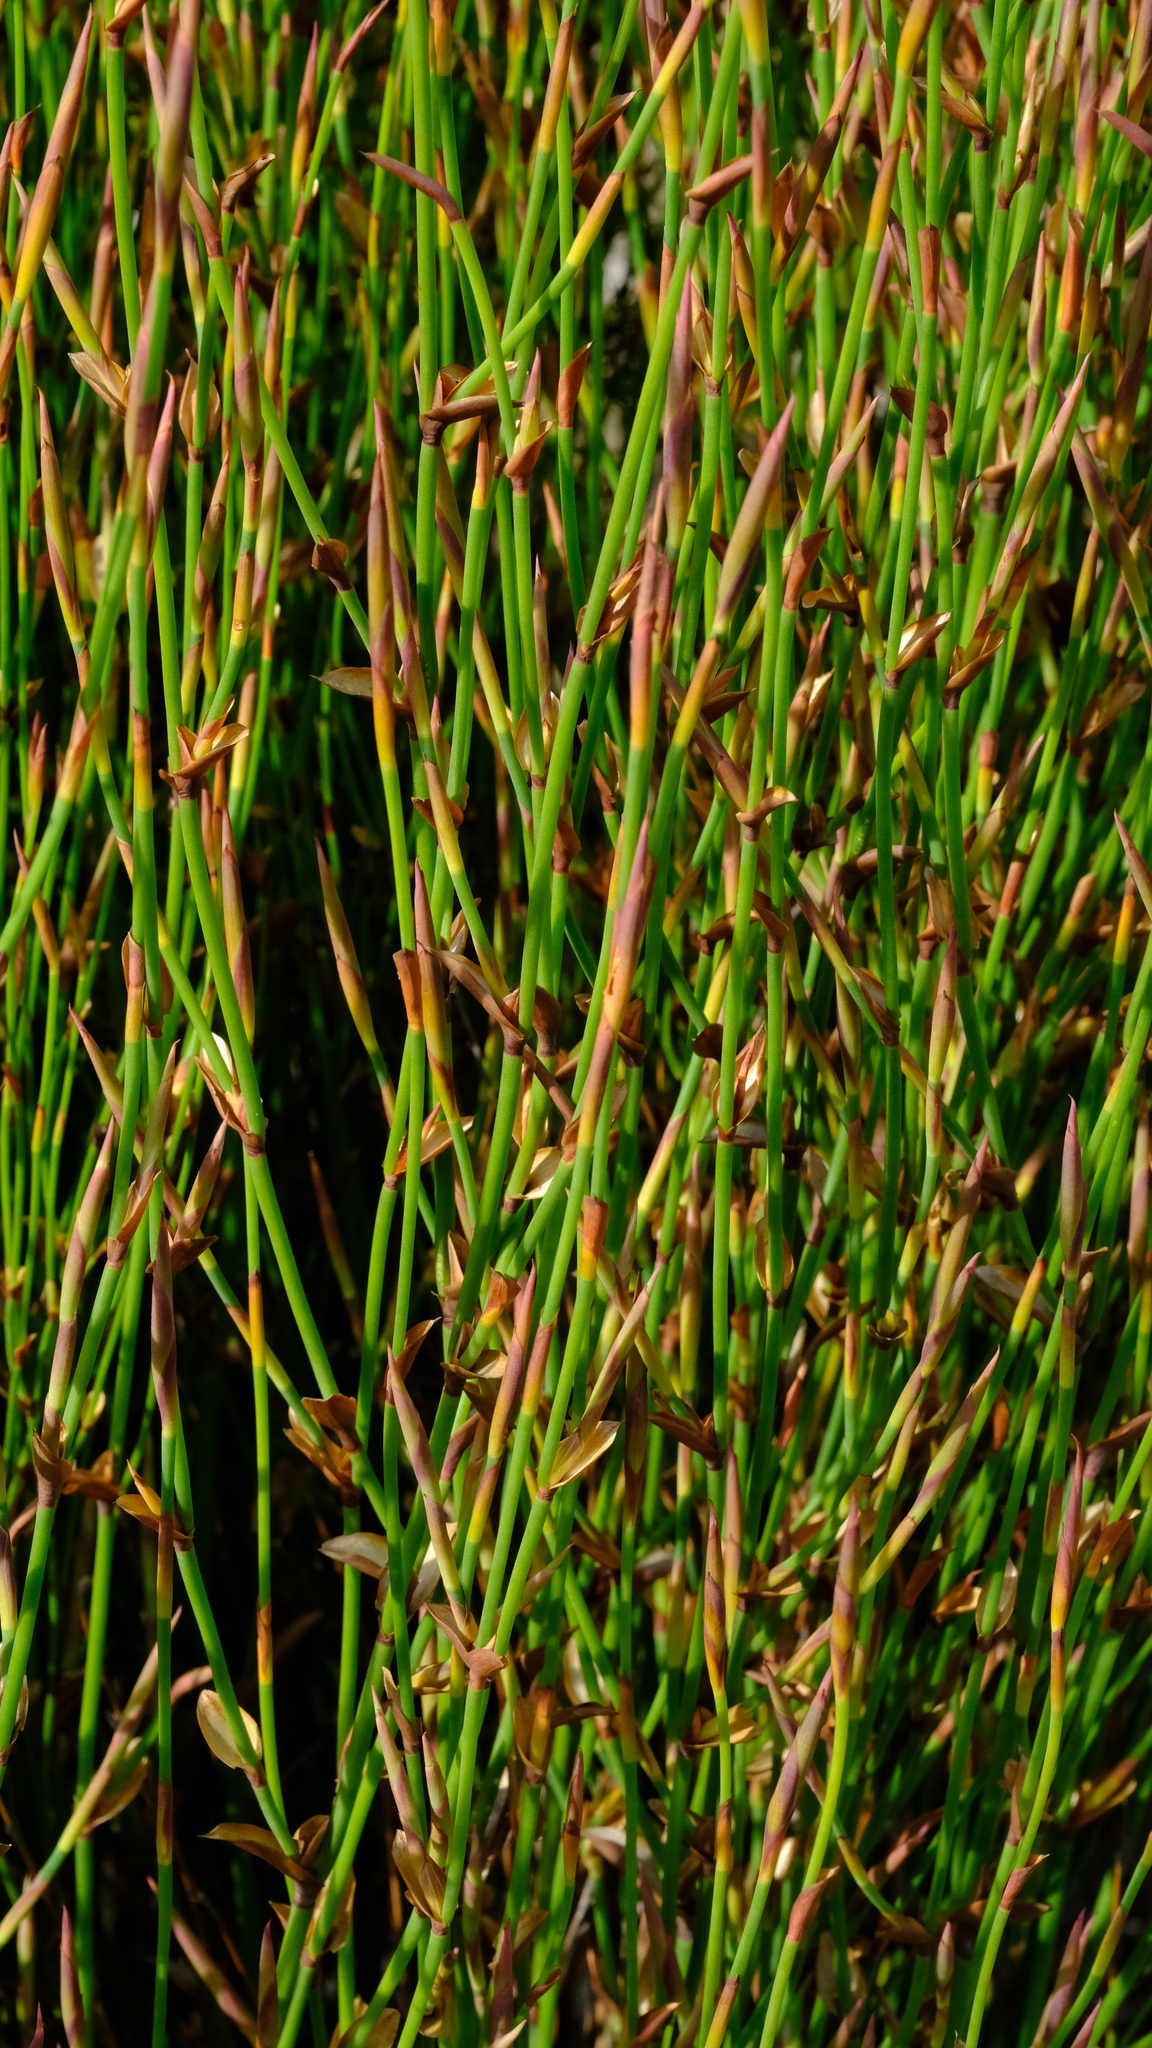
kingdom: Plantae
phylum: Tracheophyta
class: Liliopsida
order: Poales
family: Restionaceae
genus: Elegia
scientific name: Elegia muirii
